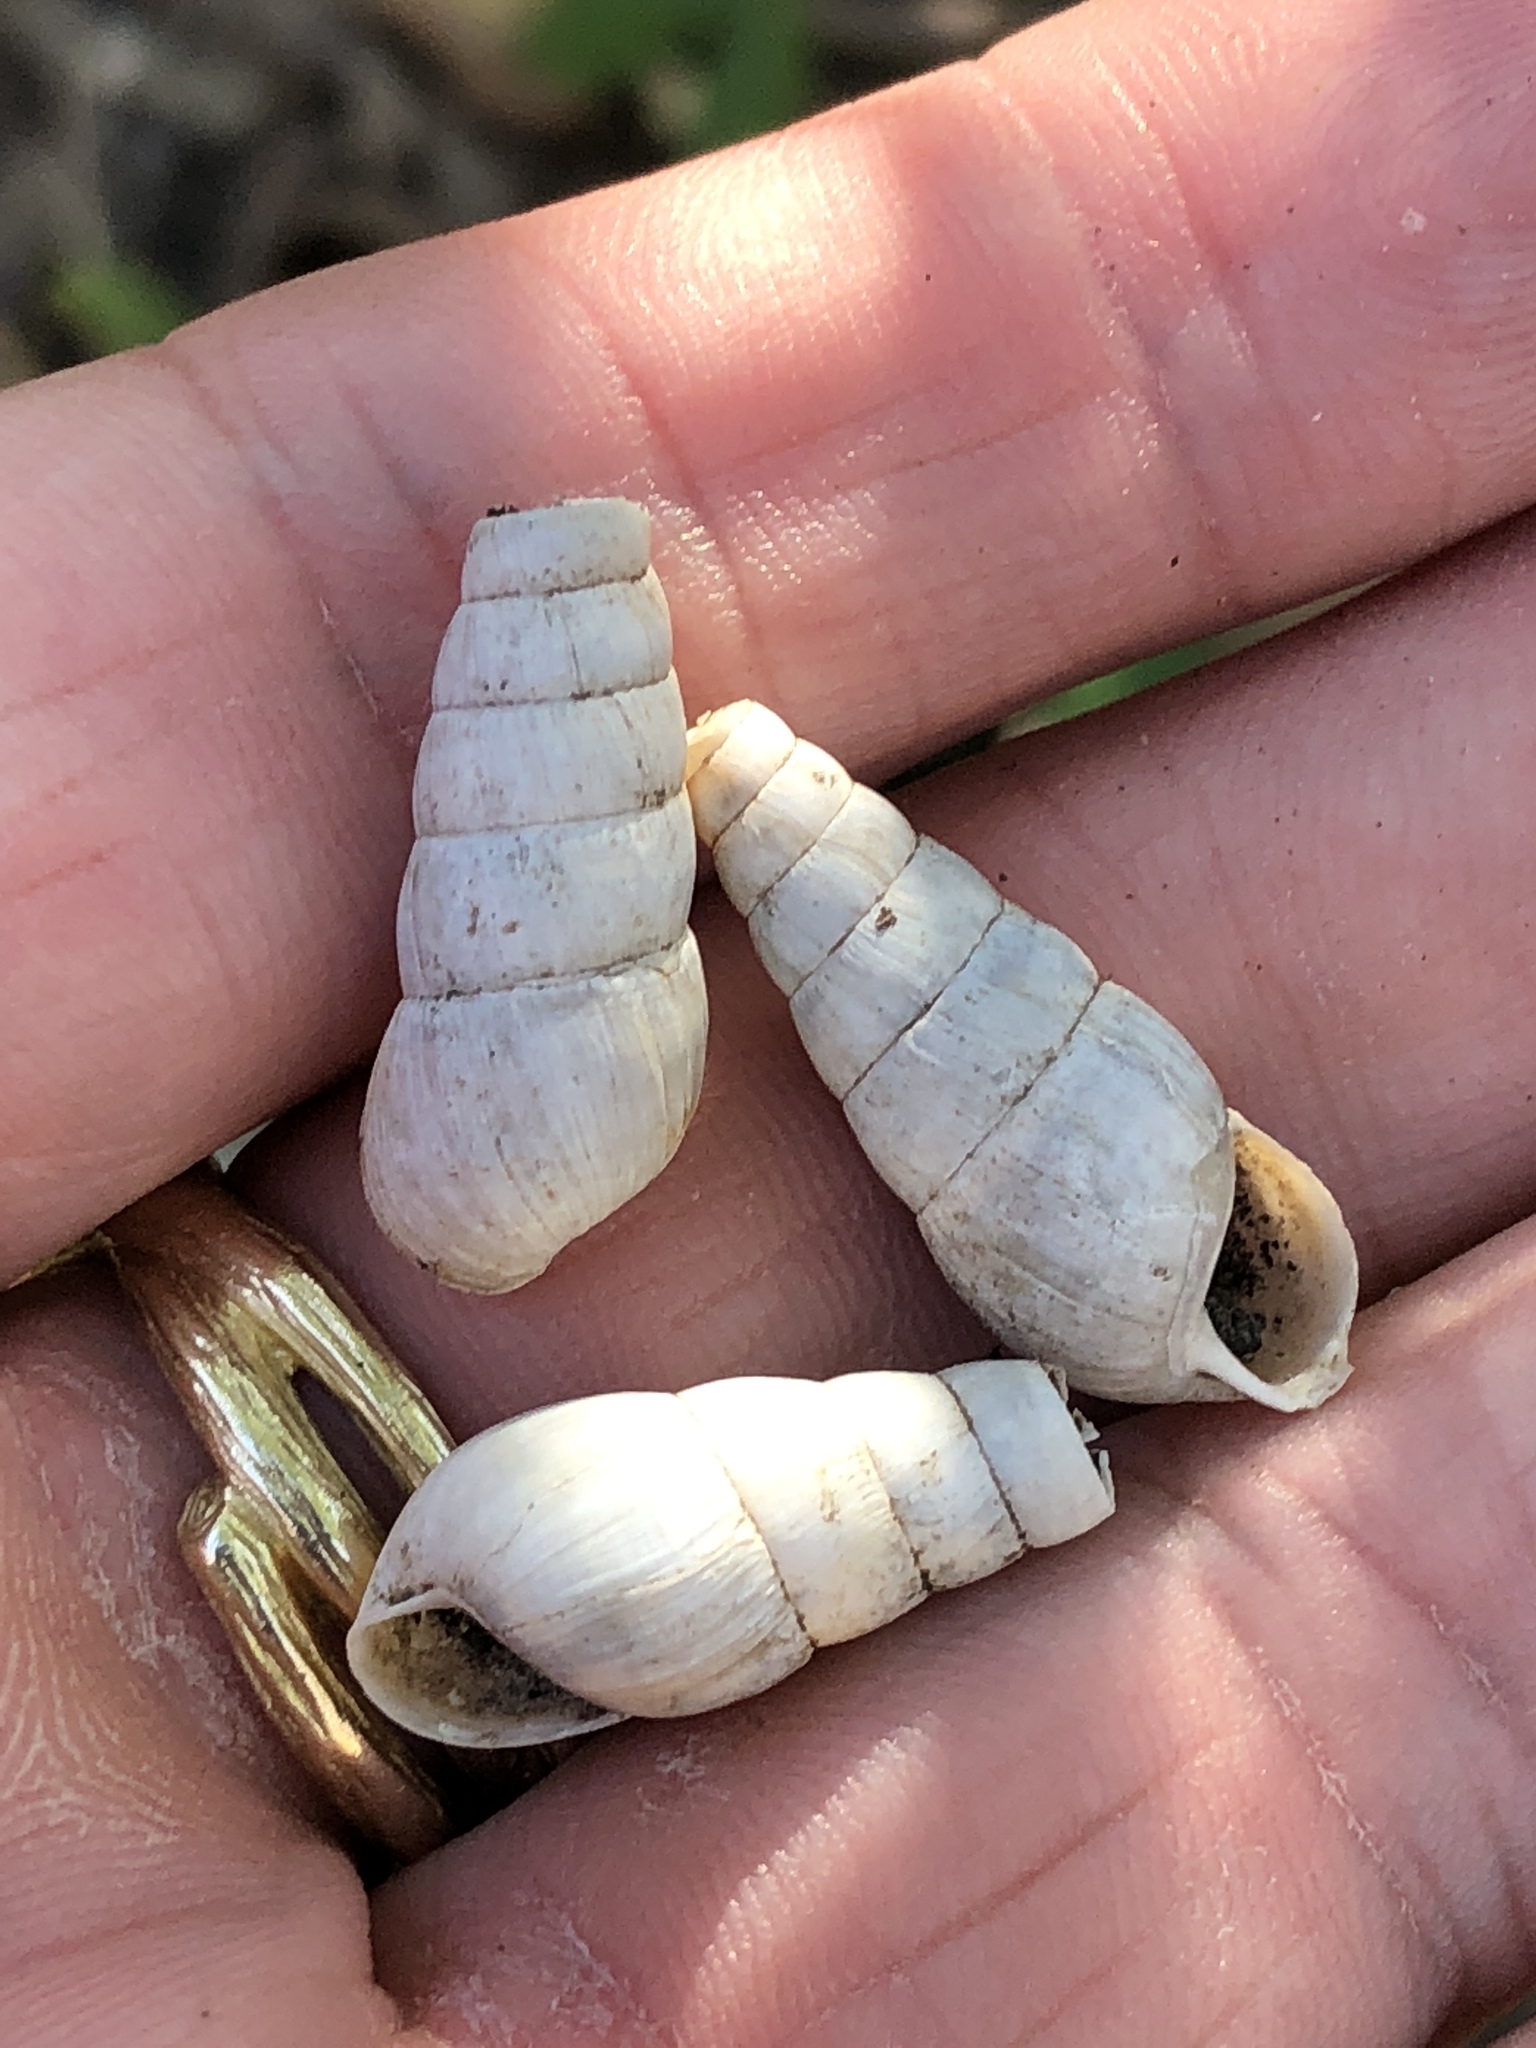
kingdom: Animalia
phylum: Mollusca
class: Gastropoda
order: Stylommatophora
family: Achatinidae
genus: Rumina
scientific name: Rumina decollata
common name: Decollate snail
